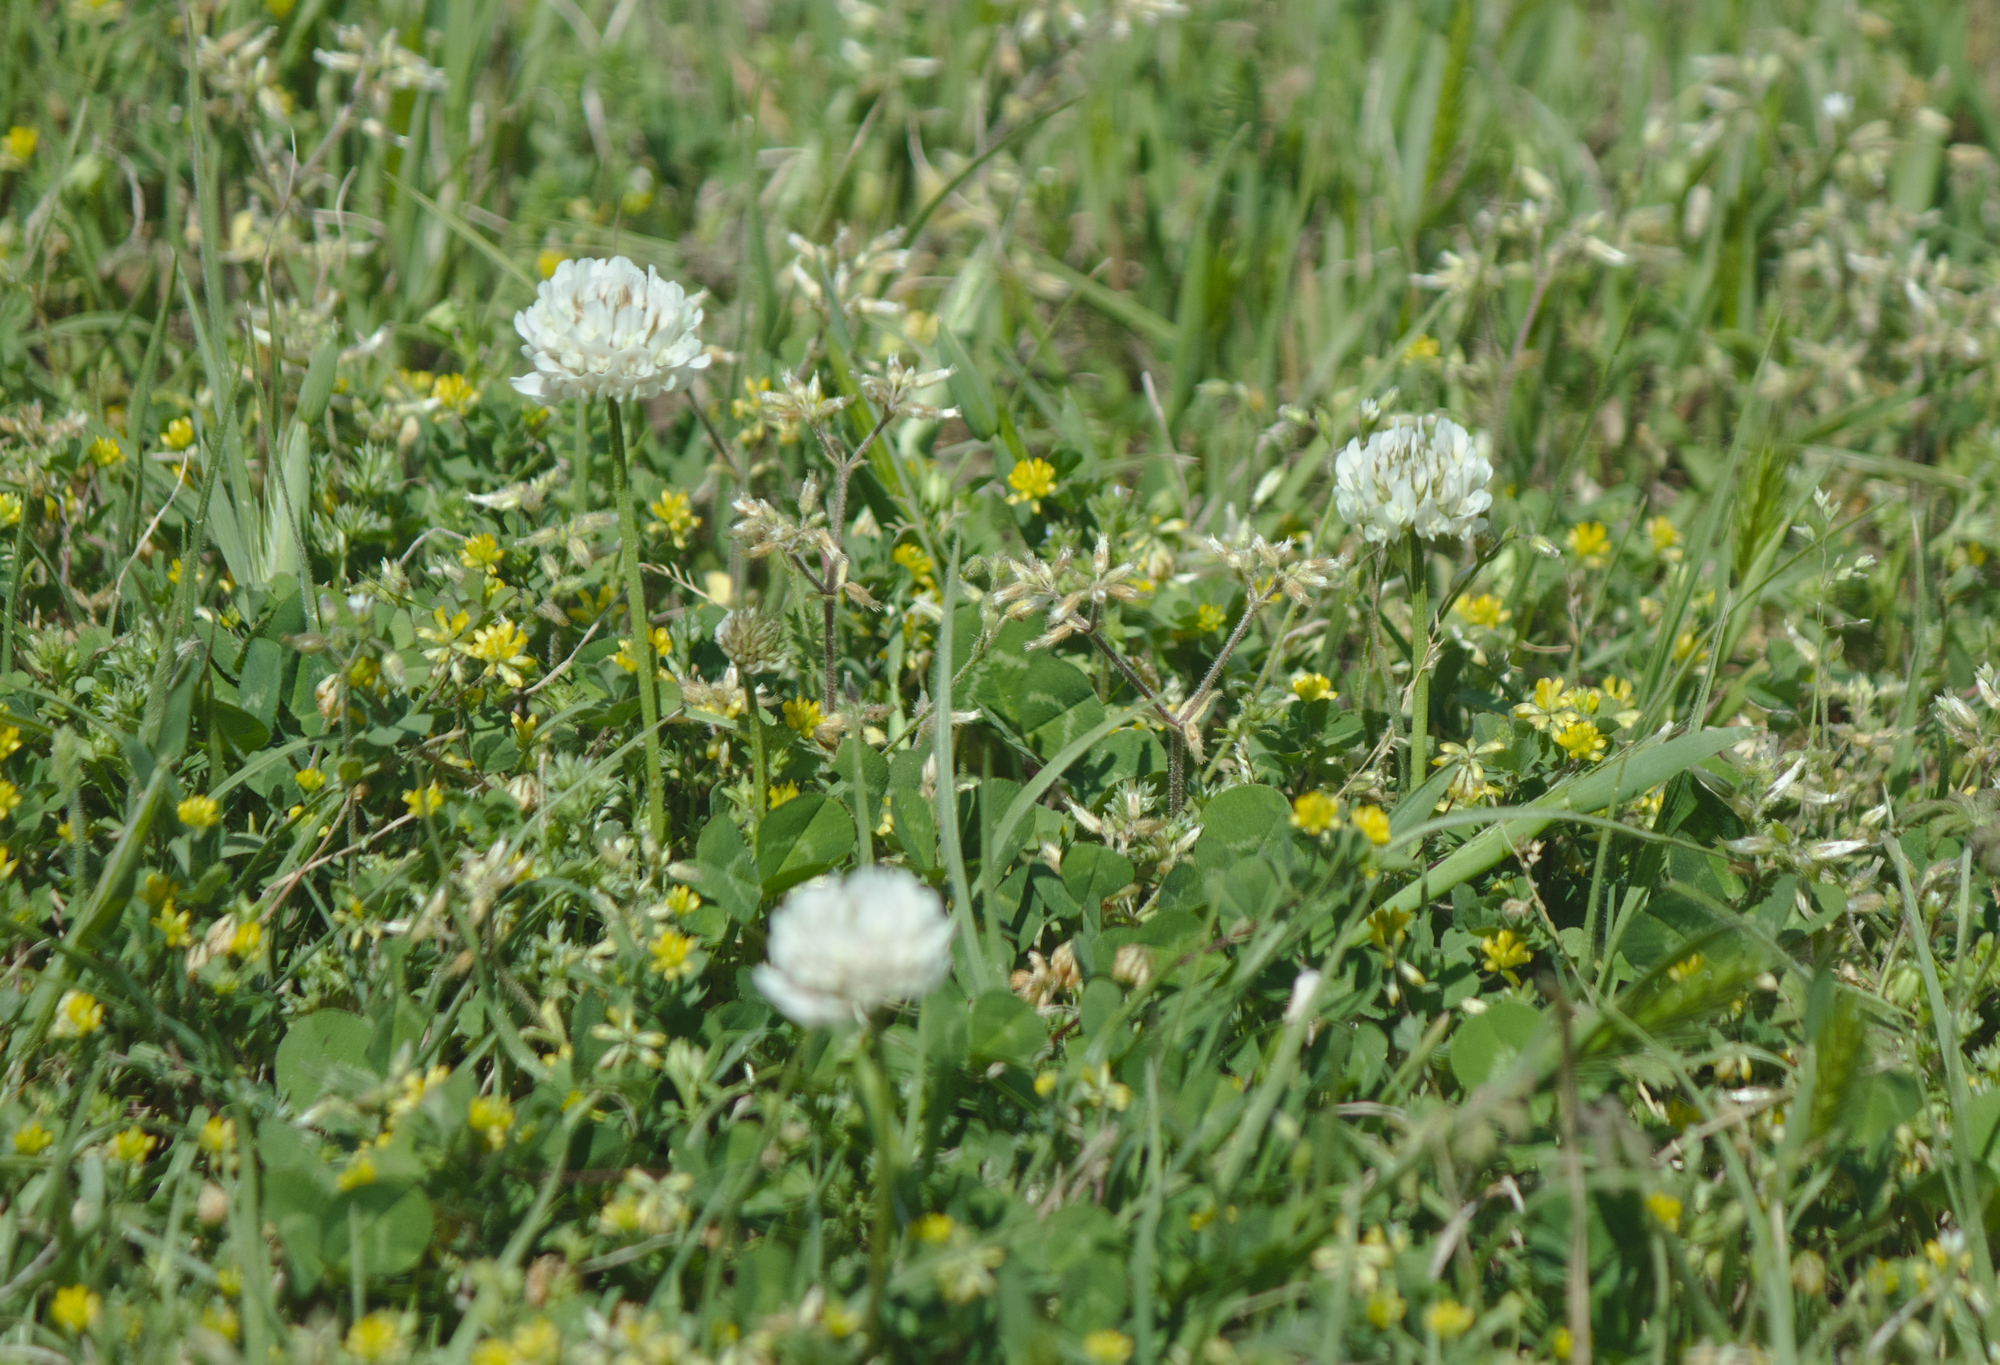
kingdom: Plantae
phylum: Tracheophyta
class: Magnoliopsida
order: Fabales
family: Fabaceae
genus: Trifolium
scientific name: Trifolium repens
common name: White clover
